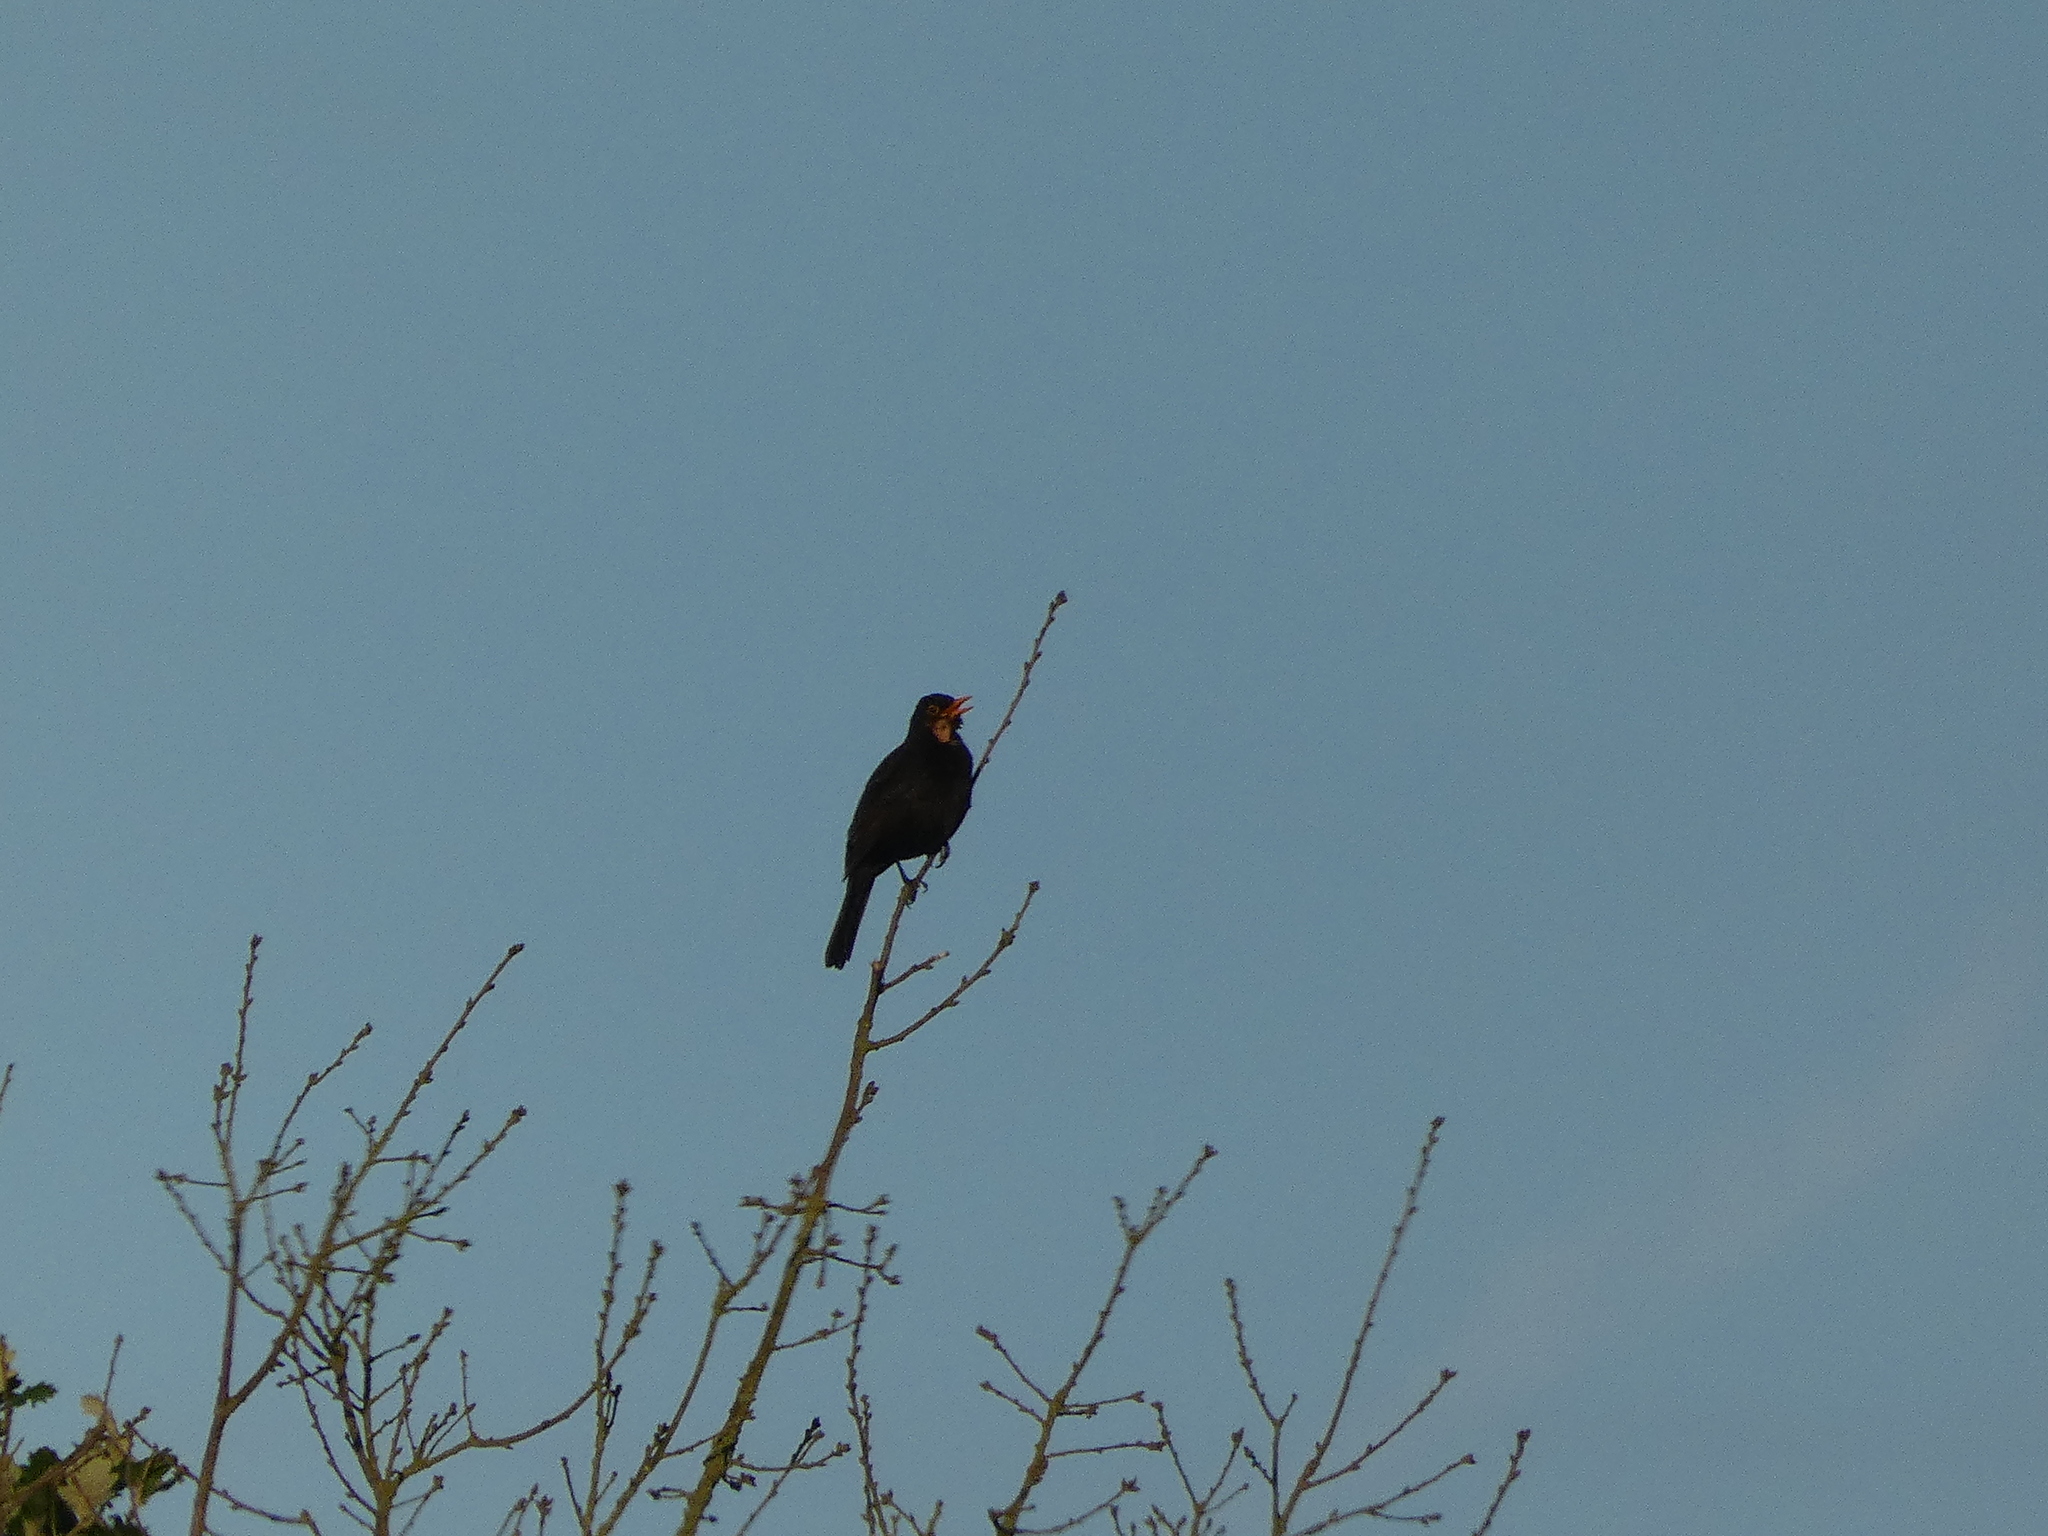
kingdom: Animalia
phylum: Chordata
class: Aves
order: Passeriformes
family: Turdidae
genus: Turdus
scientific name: Turdus merula
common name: Common blackbird
